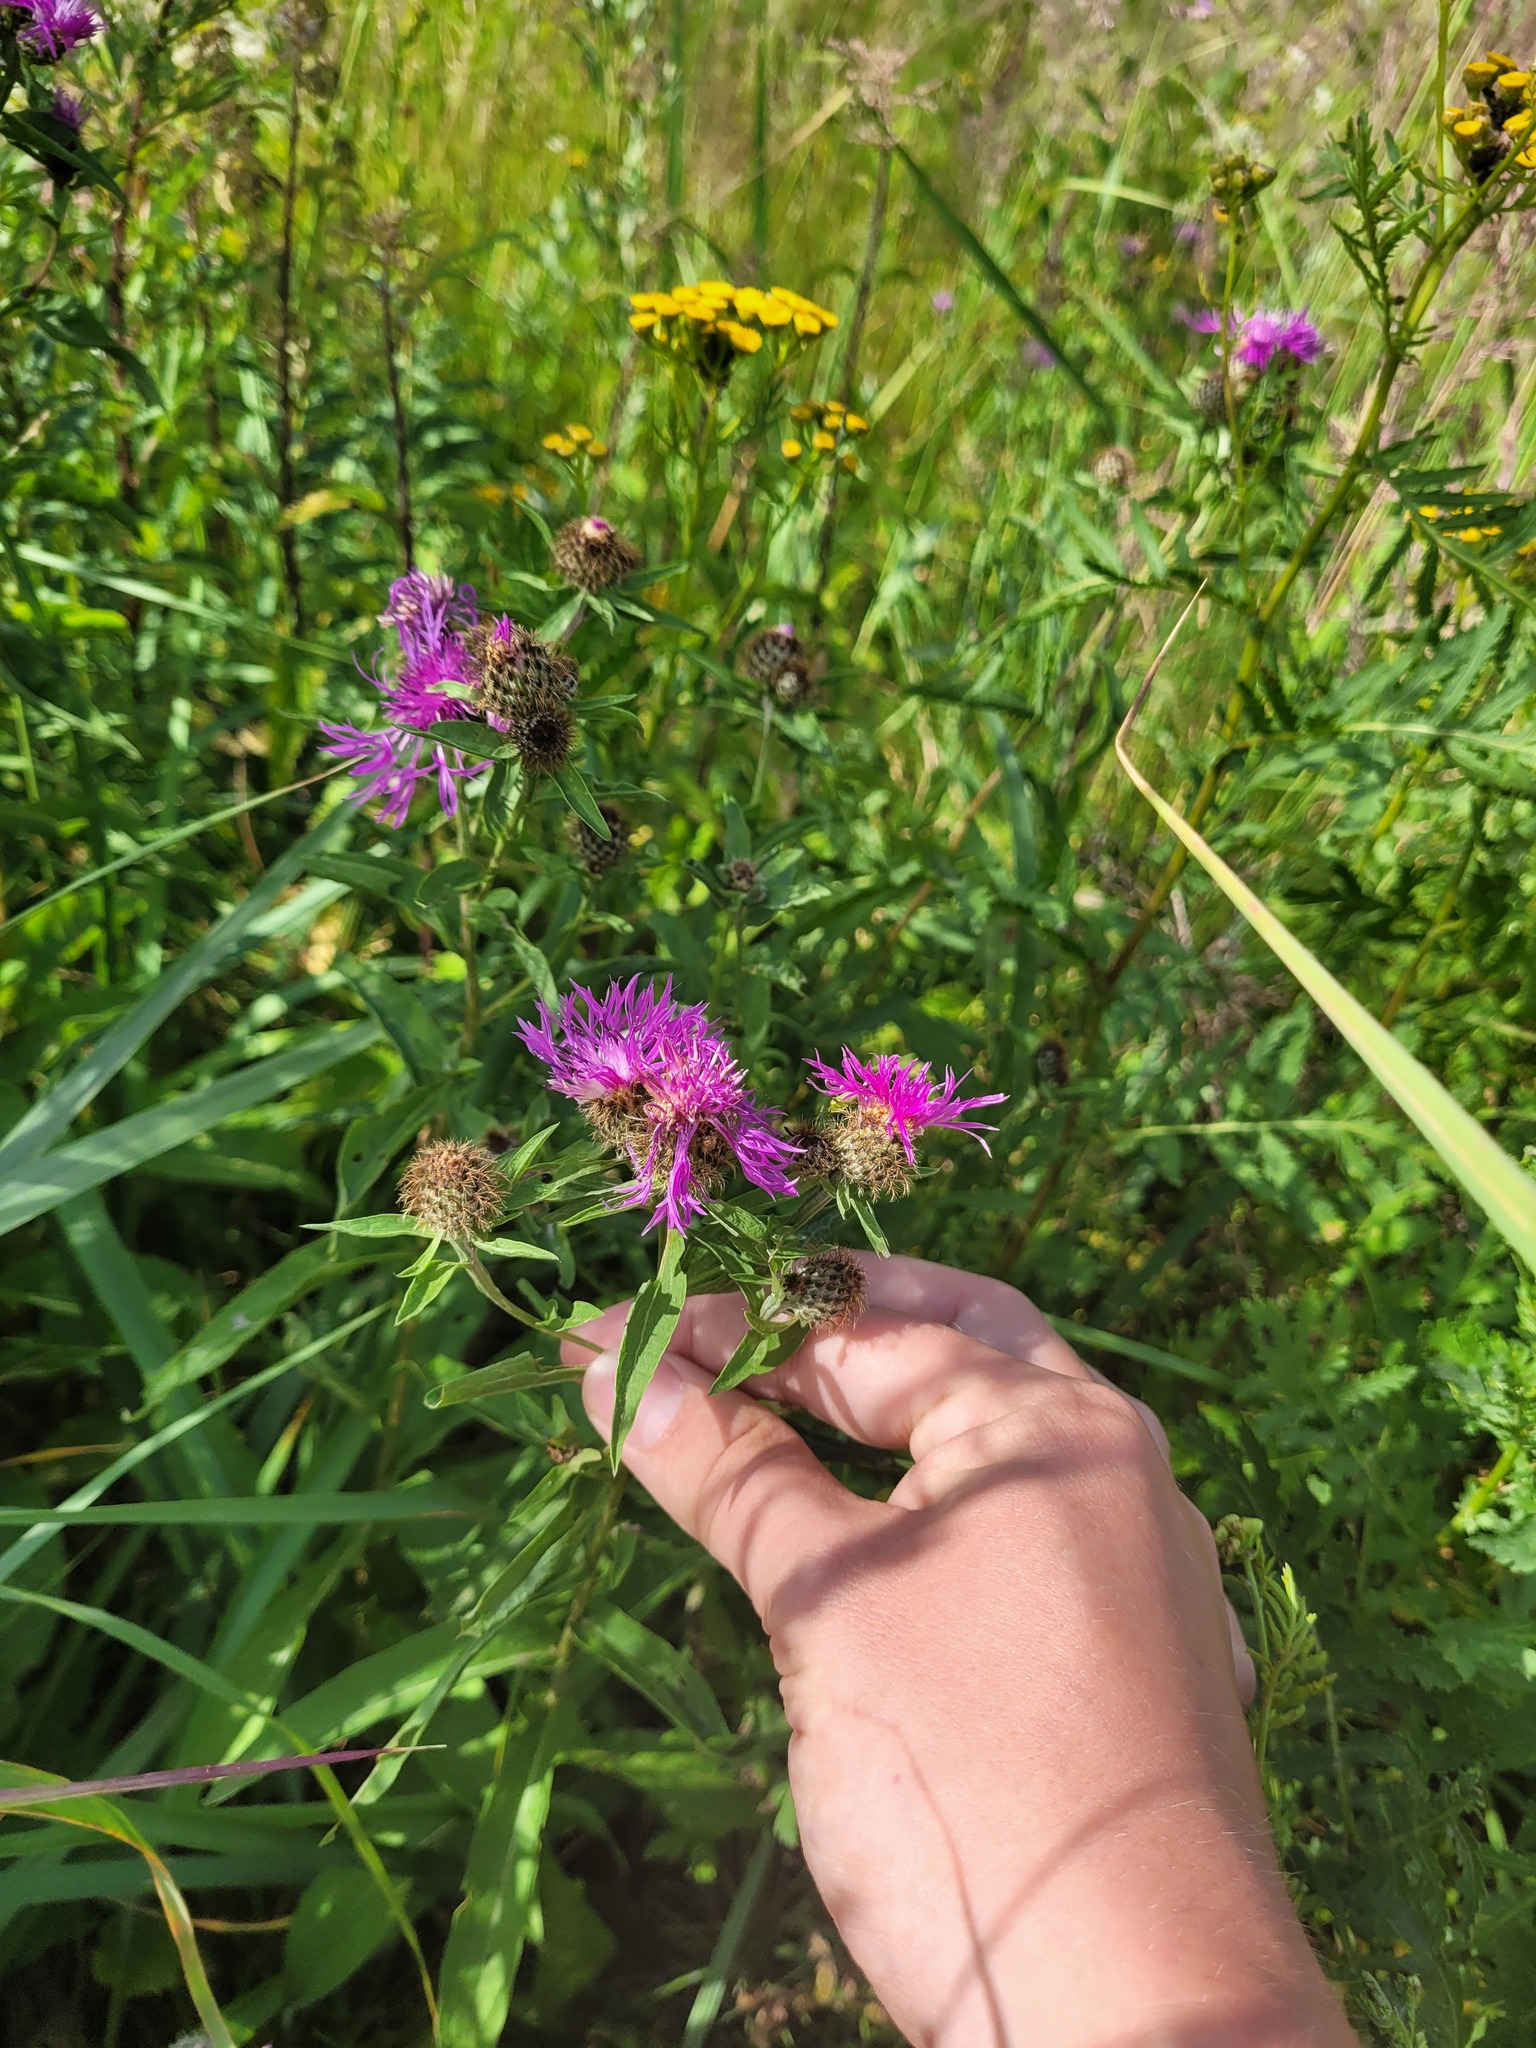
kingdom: Plantae
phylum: Tracheophyta
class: Magnoliopsida
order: Asterales
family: Asteraceae
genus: Centaurea
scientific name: Centaurea pseudophrygia
